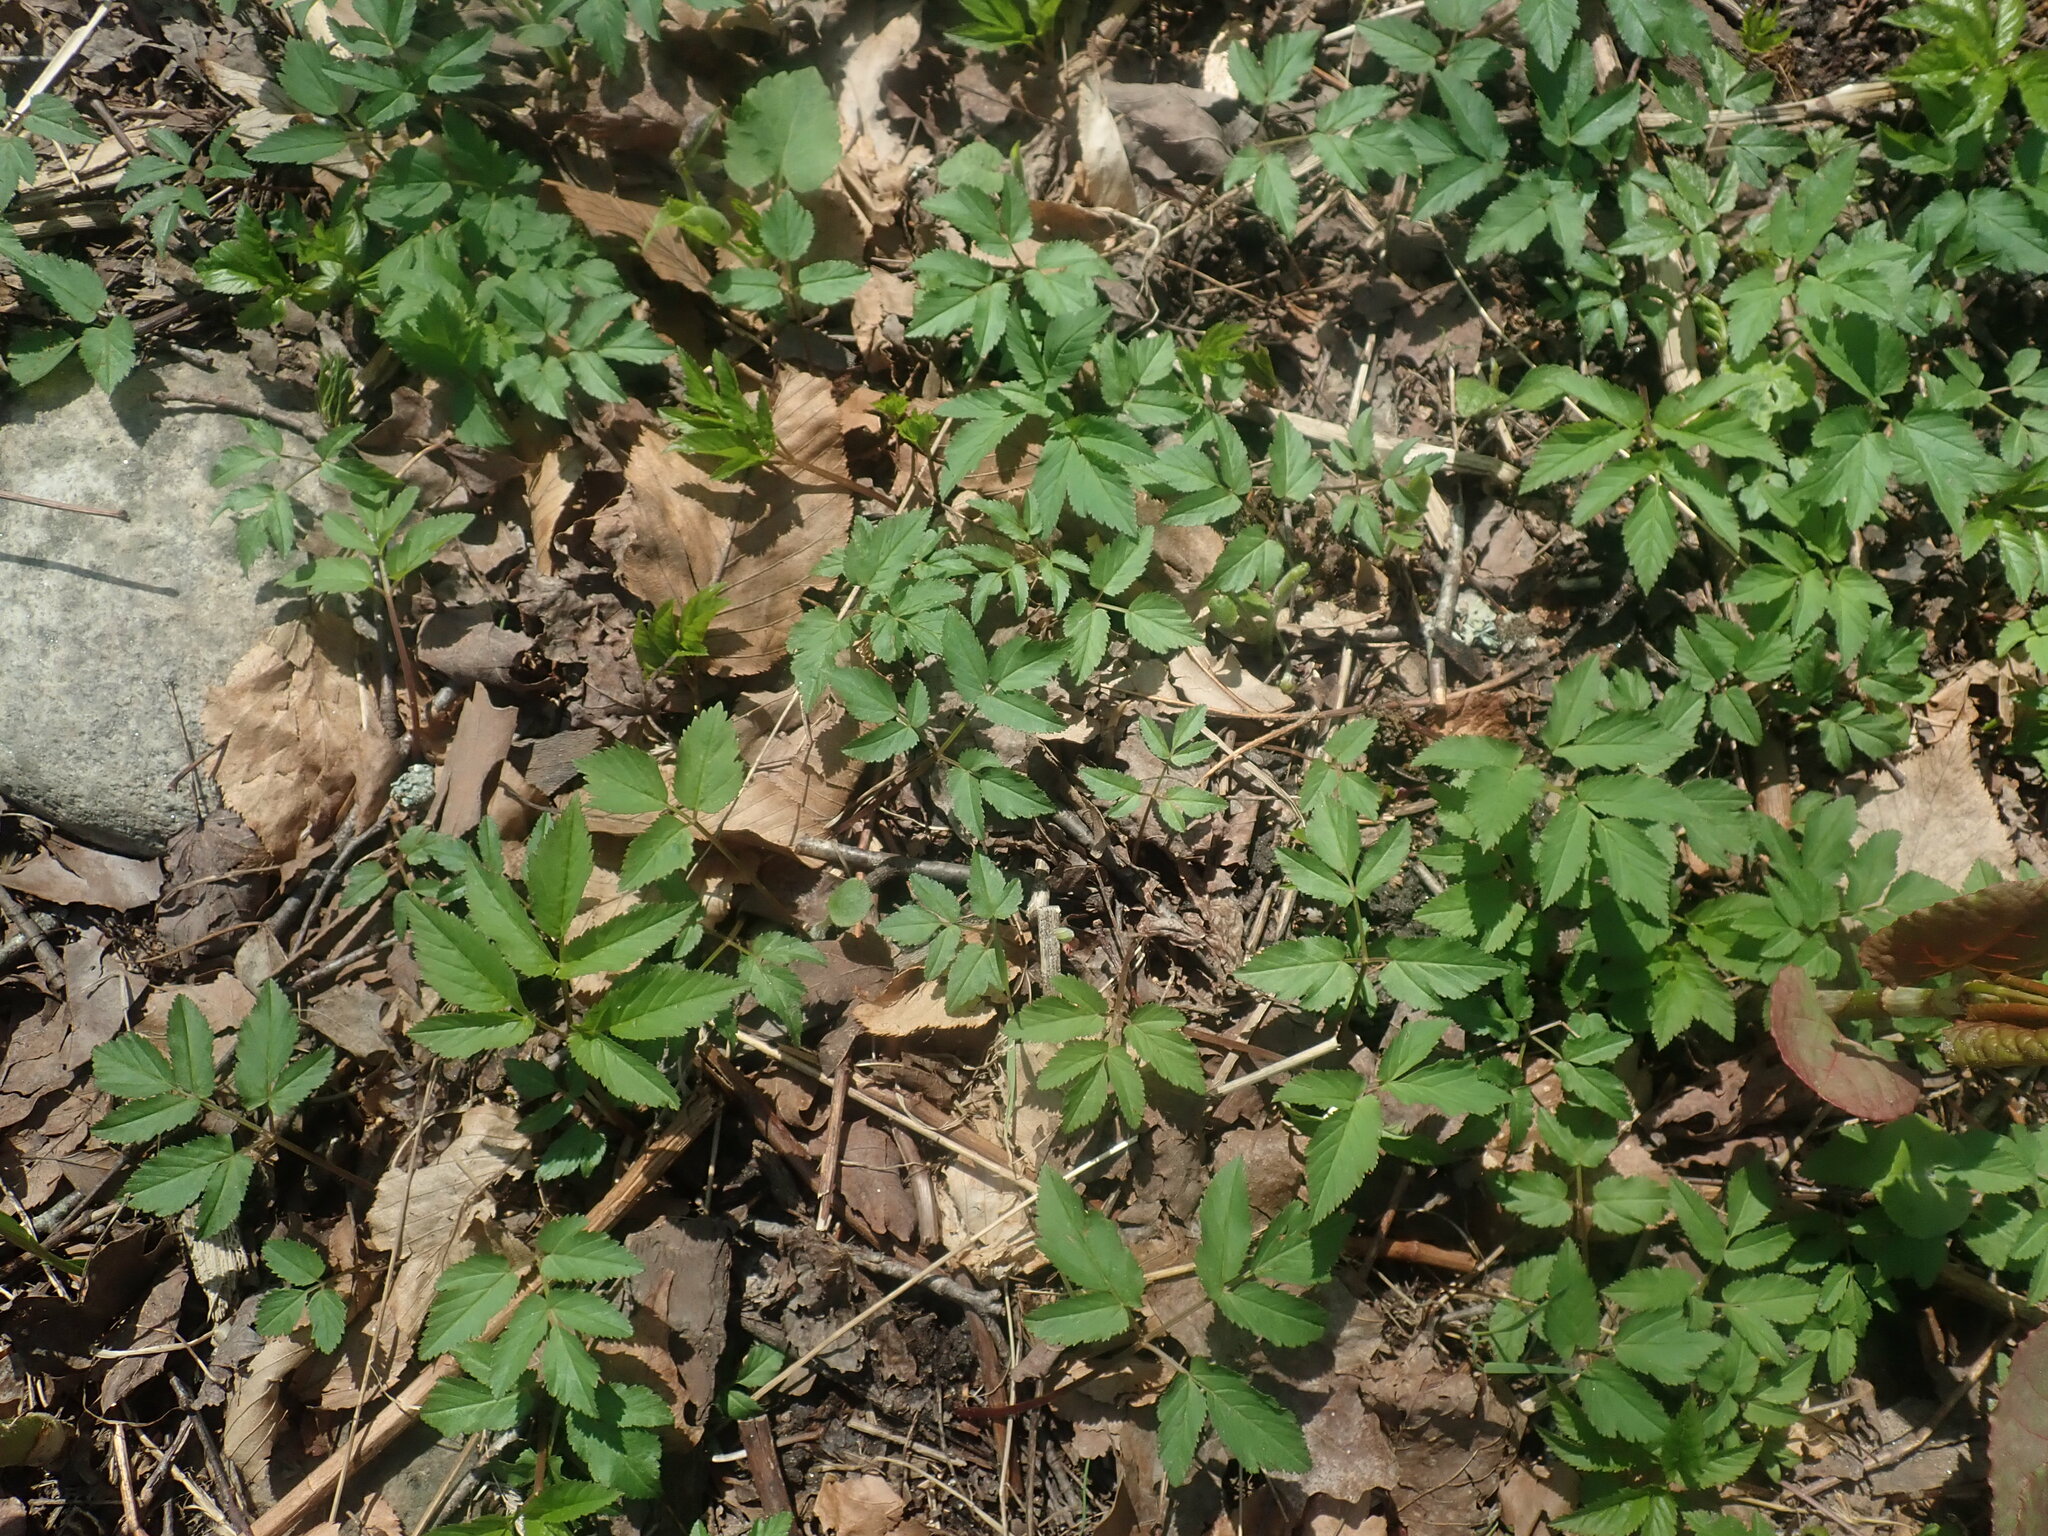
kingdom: Plantae
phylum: Tracheophyta
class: Magnoliopsida
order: Apiales
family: Apiaceae
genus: Aegopodium
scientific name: Aegopodium podagraria
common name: Ground-elder
